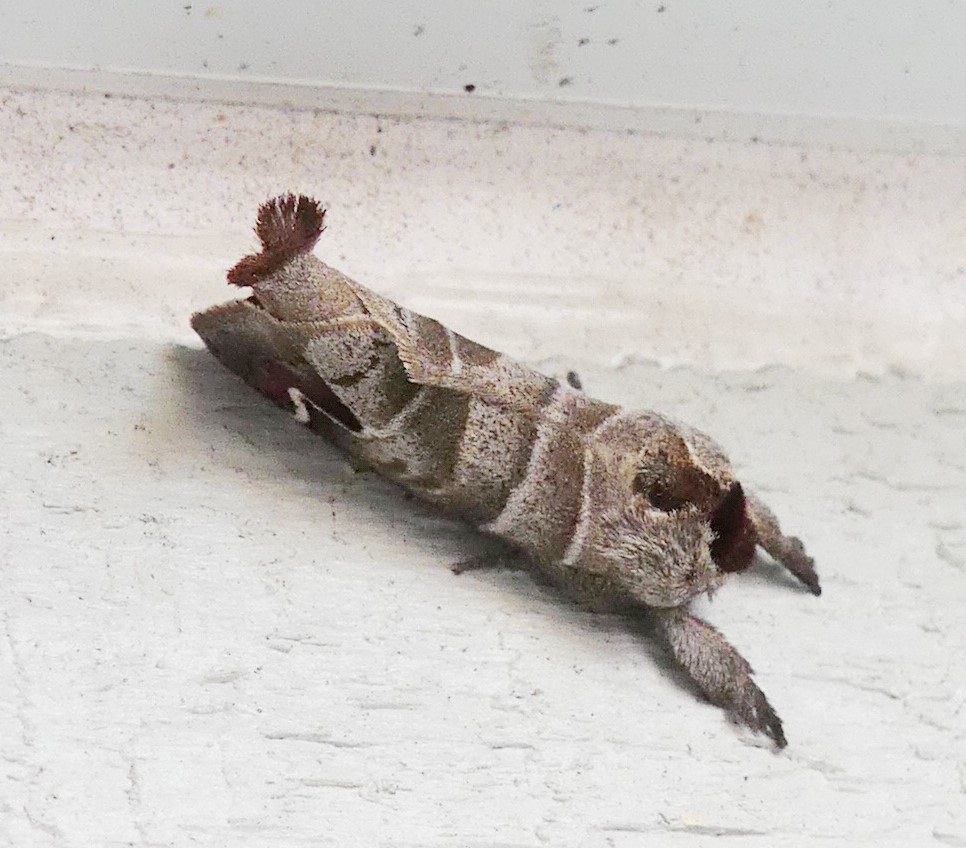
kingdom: Animalia
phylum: Arthropoda
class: Insecta
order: Lepidoptera
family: Notodontidae
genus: Clostera
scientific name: Clostera albosigma
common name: Sigmoid prominent
